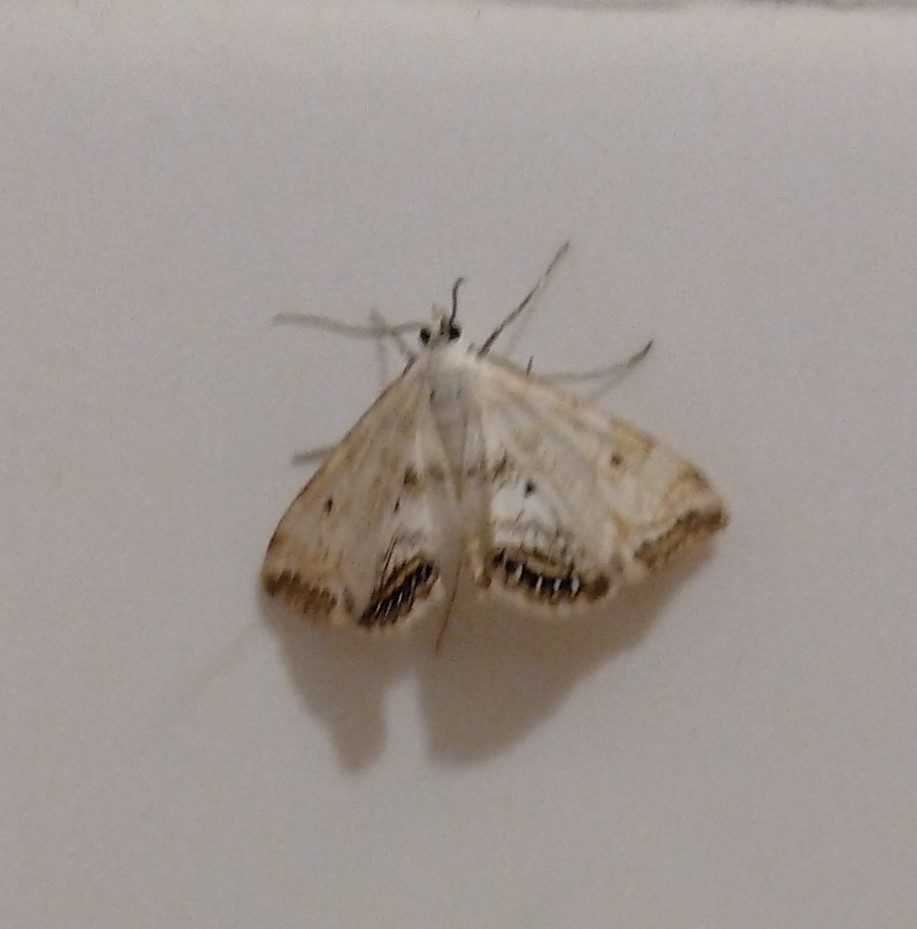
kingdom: Animalia
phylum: Arthropoda
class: Insecta
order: Lepidoptera
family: Crambidae
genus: Cataclysta
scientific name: Cataclysta lemnata
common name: Small china-mark
